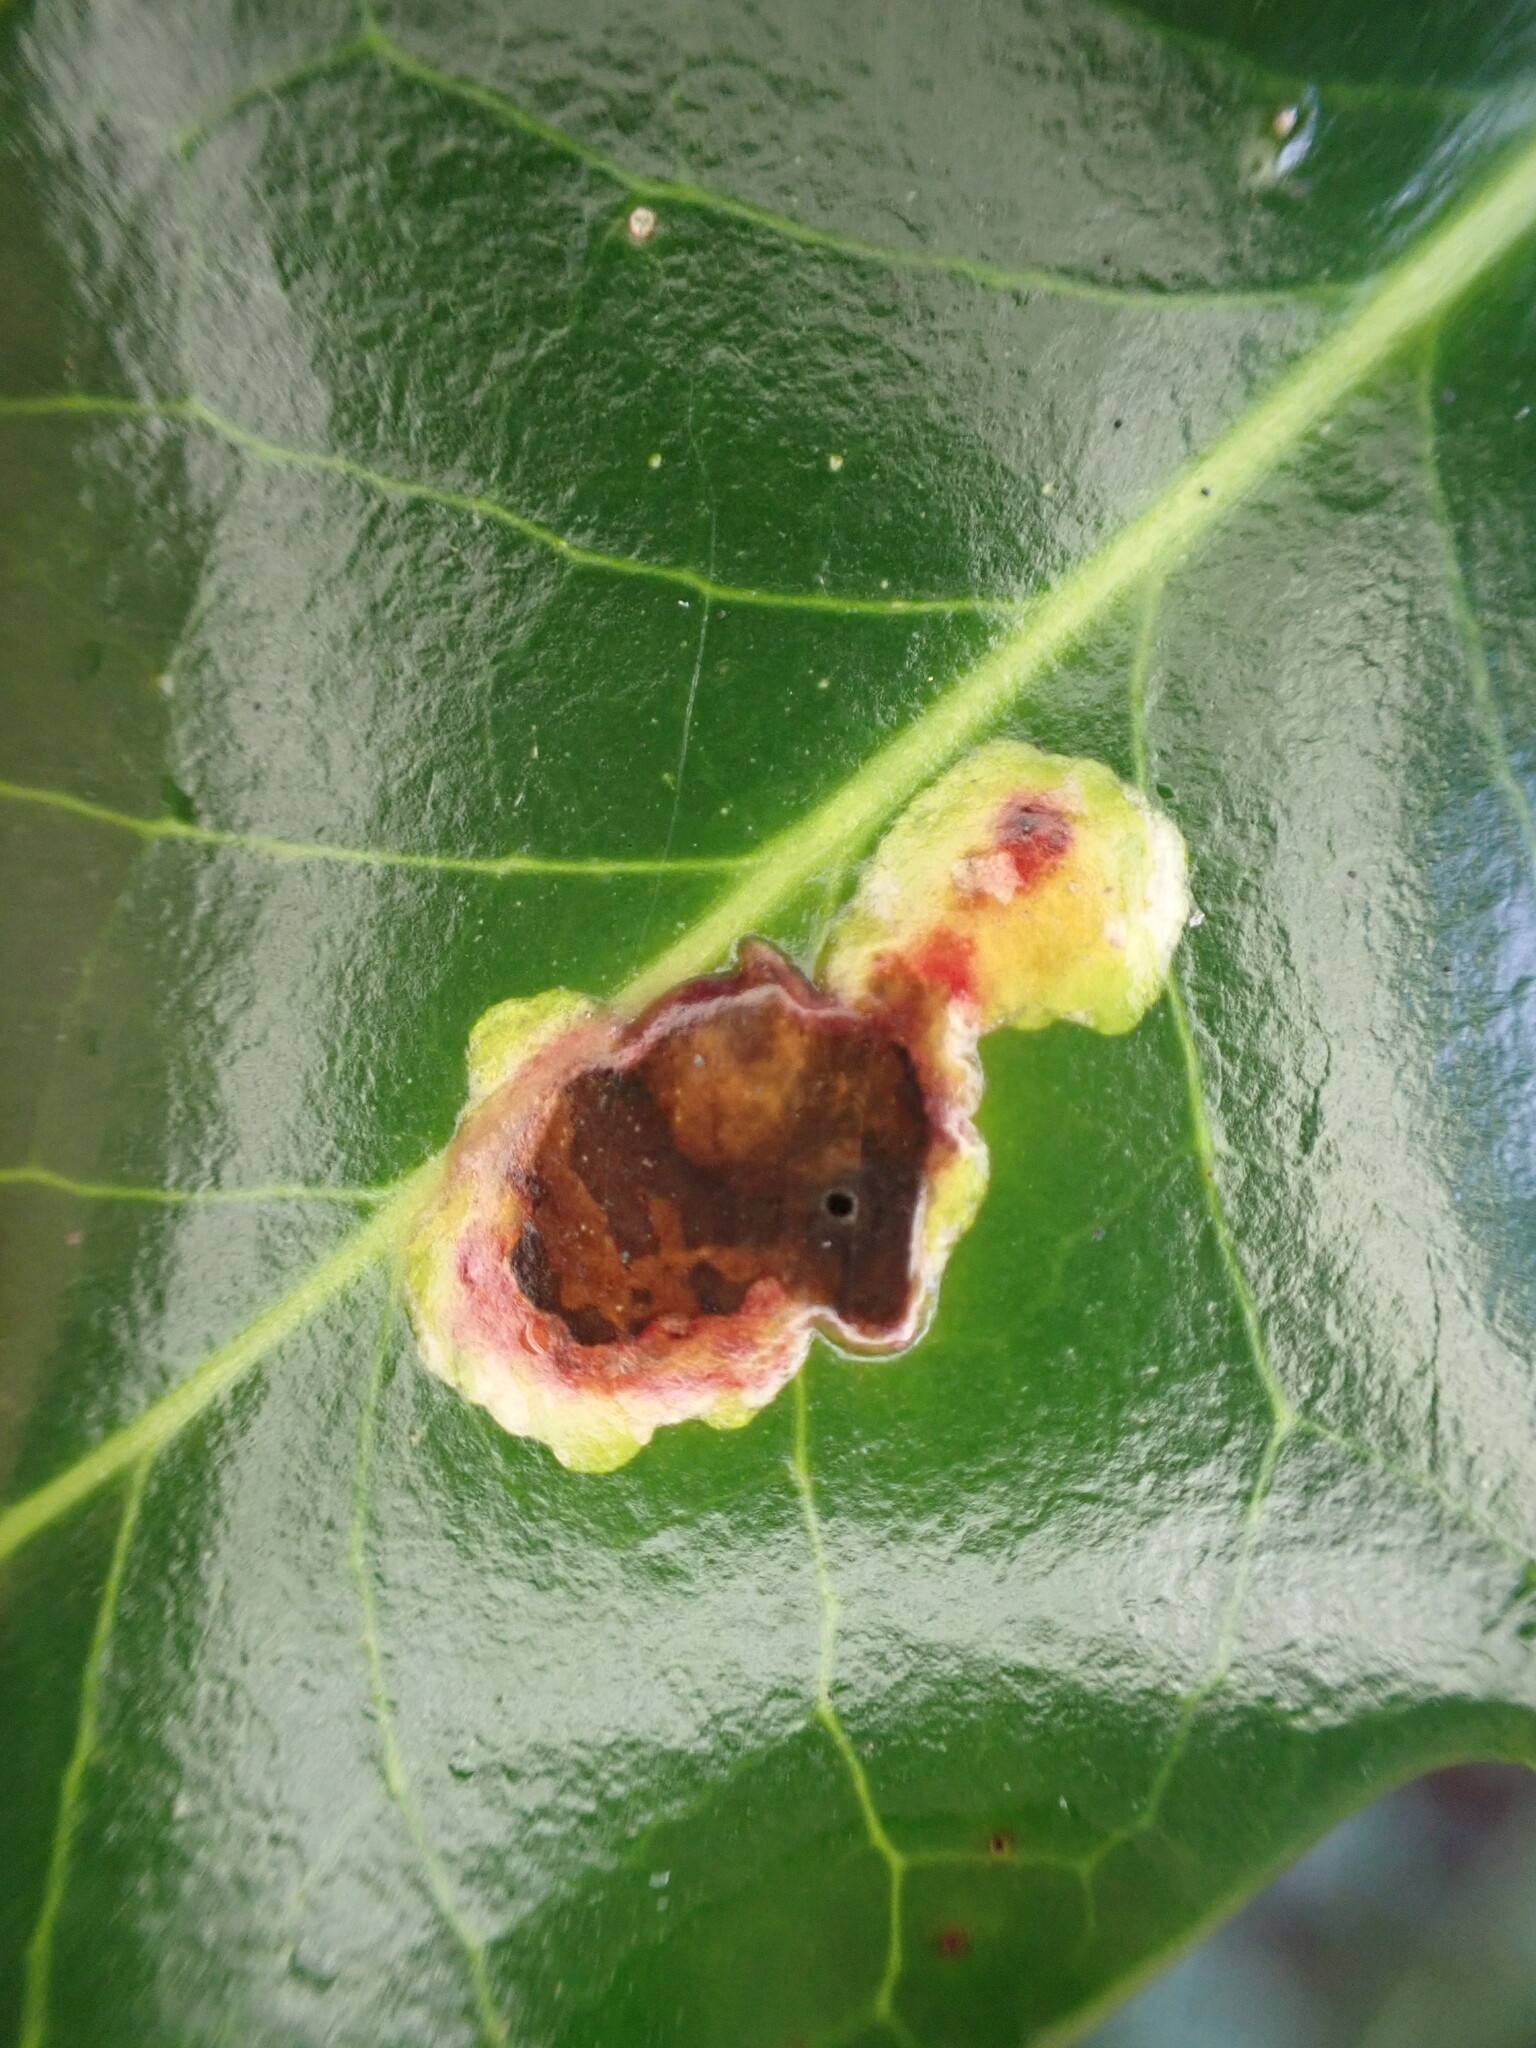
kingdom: Animalia
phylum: Arthropoda
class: Insecta
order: Diptera
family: Agromyzidae
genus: Phytomyza
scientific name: Phytomyza ilicis
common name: Holly leafminer
